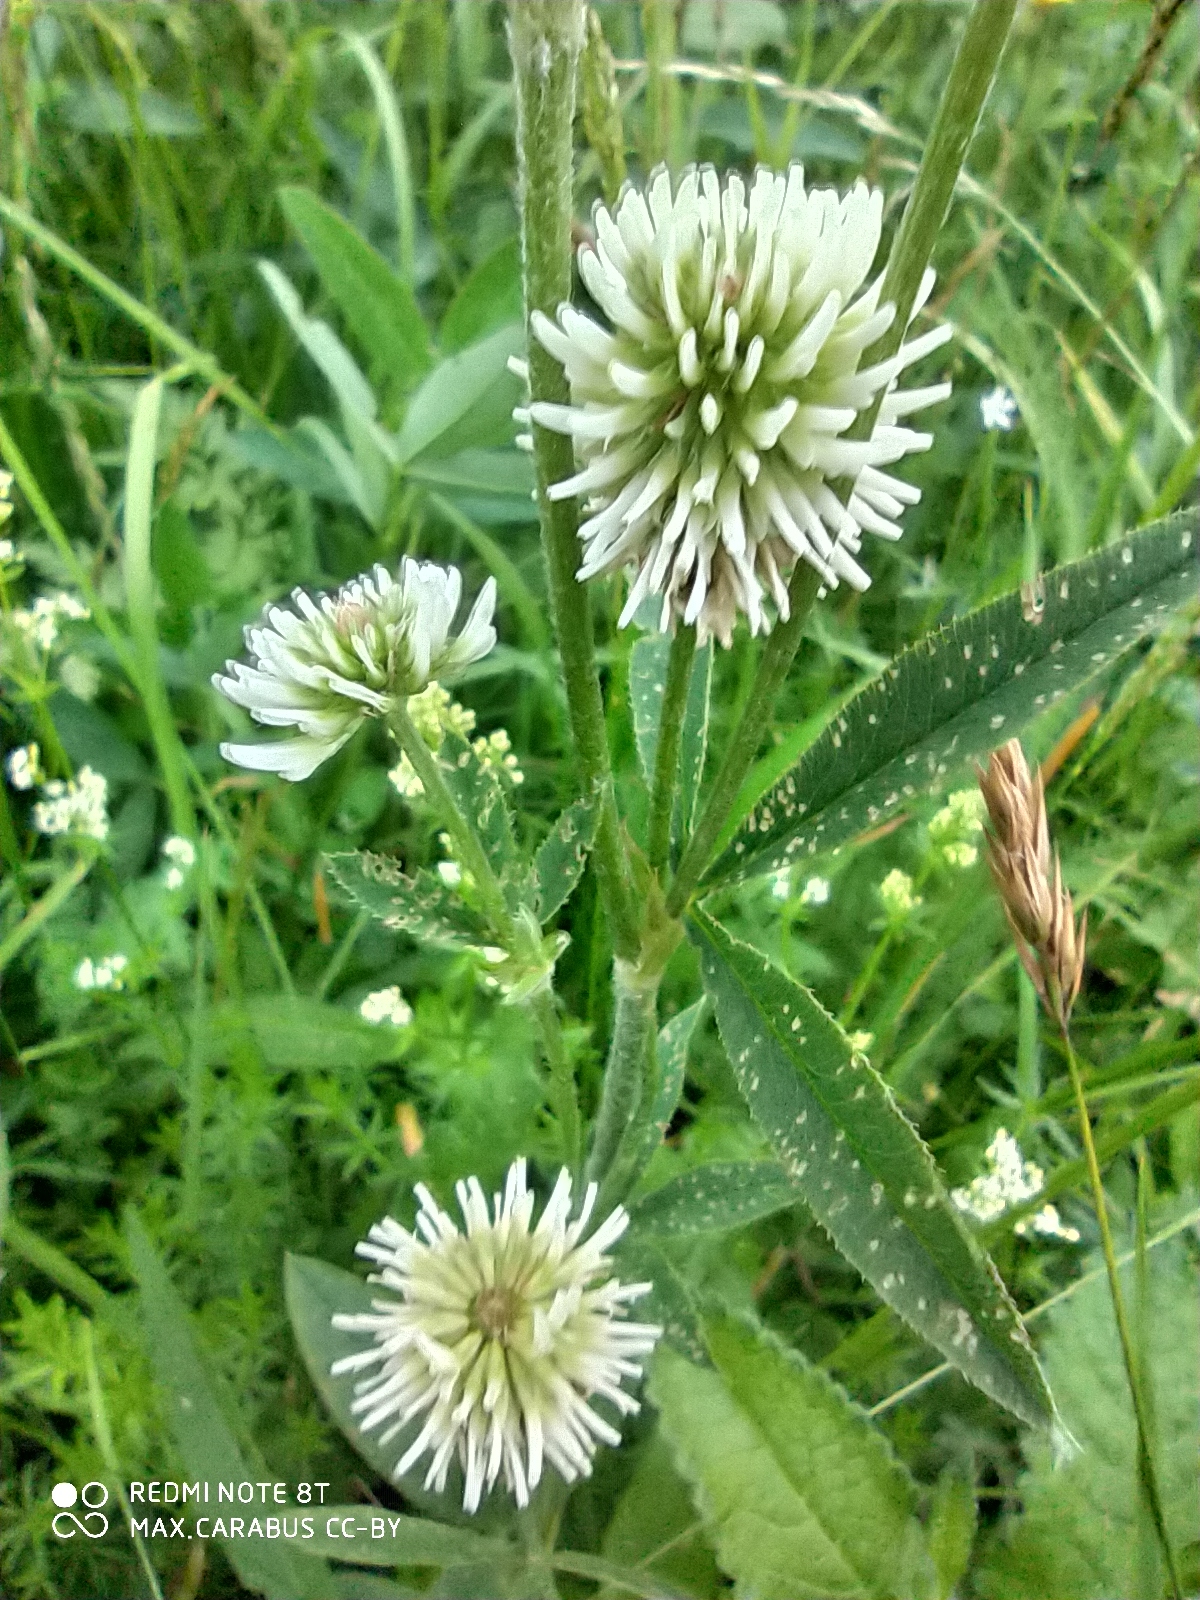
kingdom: Plantae
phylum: Tracheophyta
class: Magnoliopsida
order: Fabales
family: Fabaceae
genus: Trifolium
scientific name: Trifolium montanum
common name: Mountain clover
